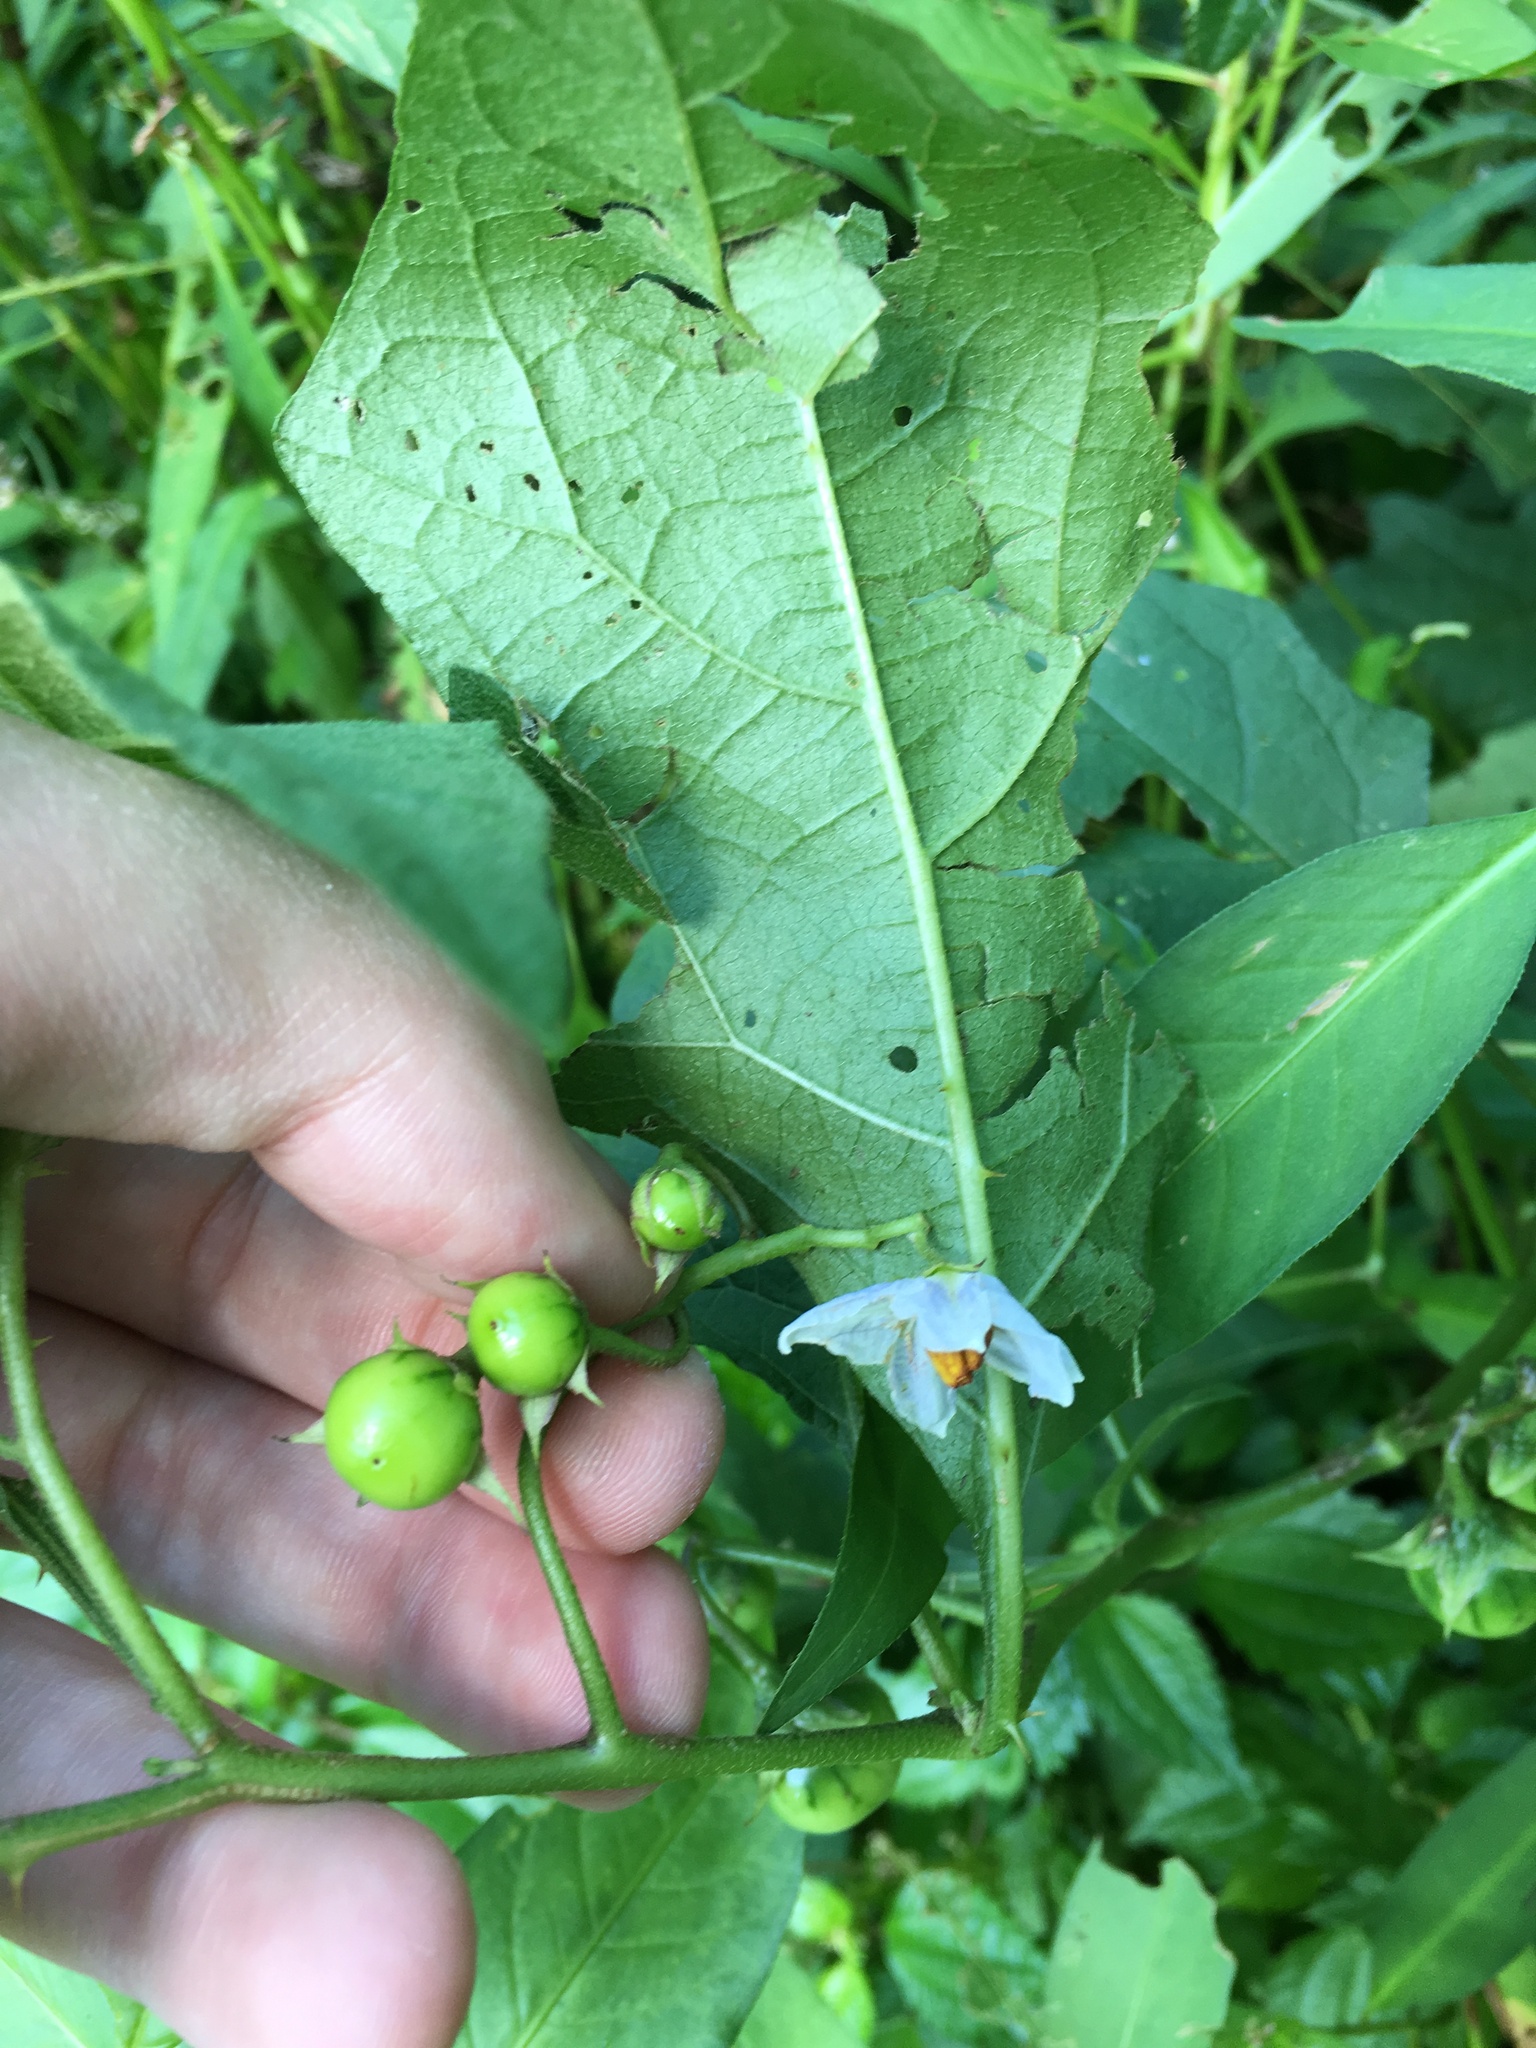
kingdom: Plantae
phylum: Tracheophyta
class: Magnoliopsida
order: Solanales
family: Solanaceae
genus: Solanum
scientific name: Solanum carolinense
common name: Horse-nettle
